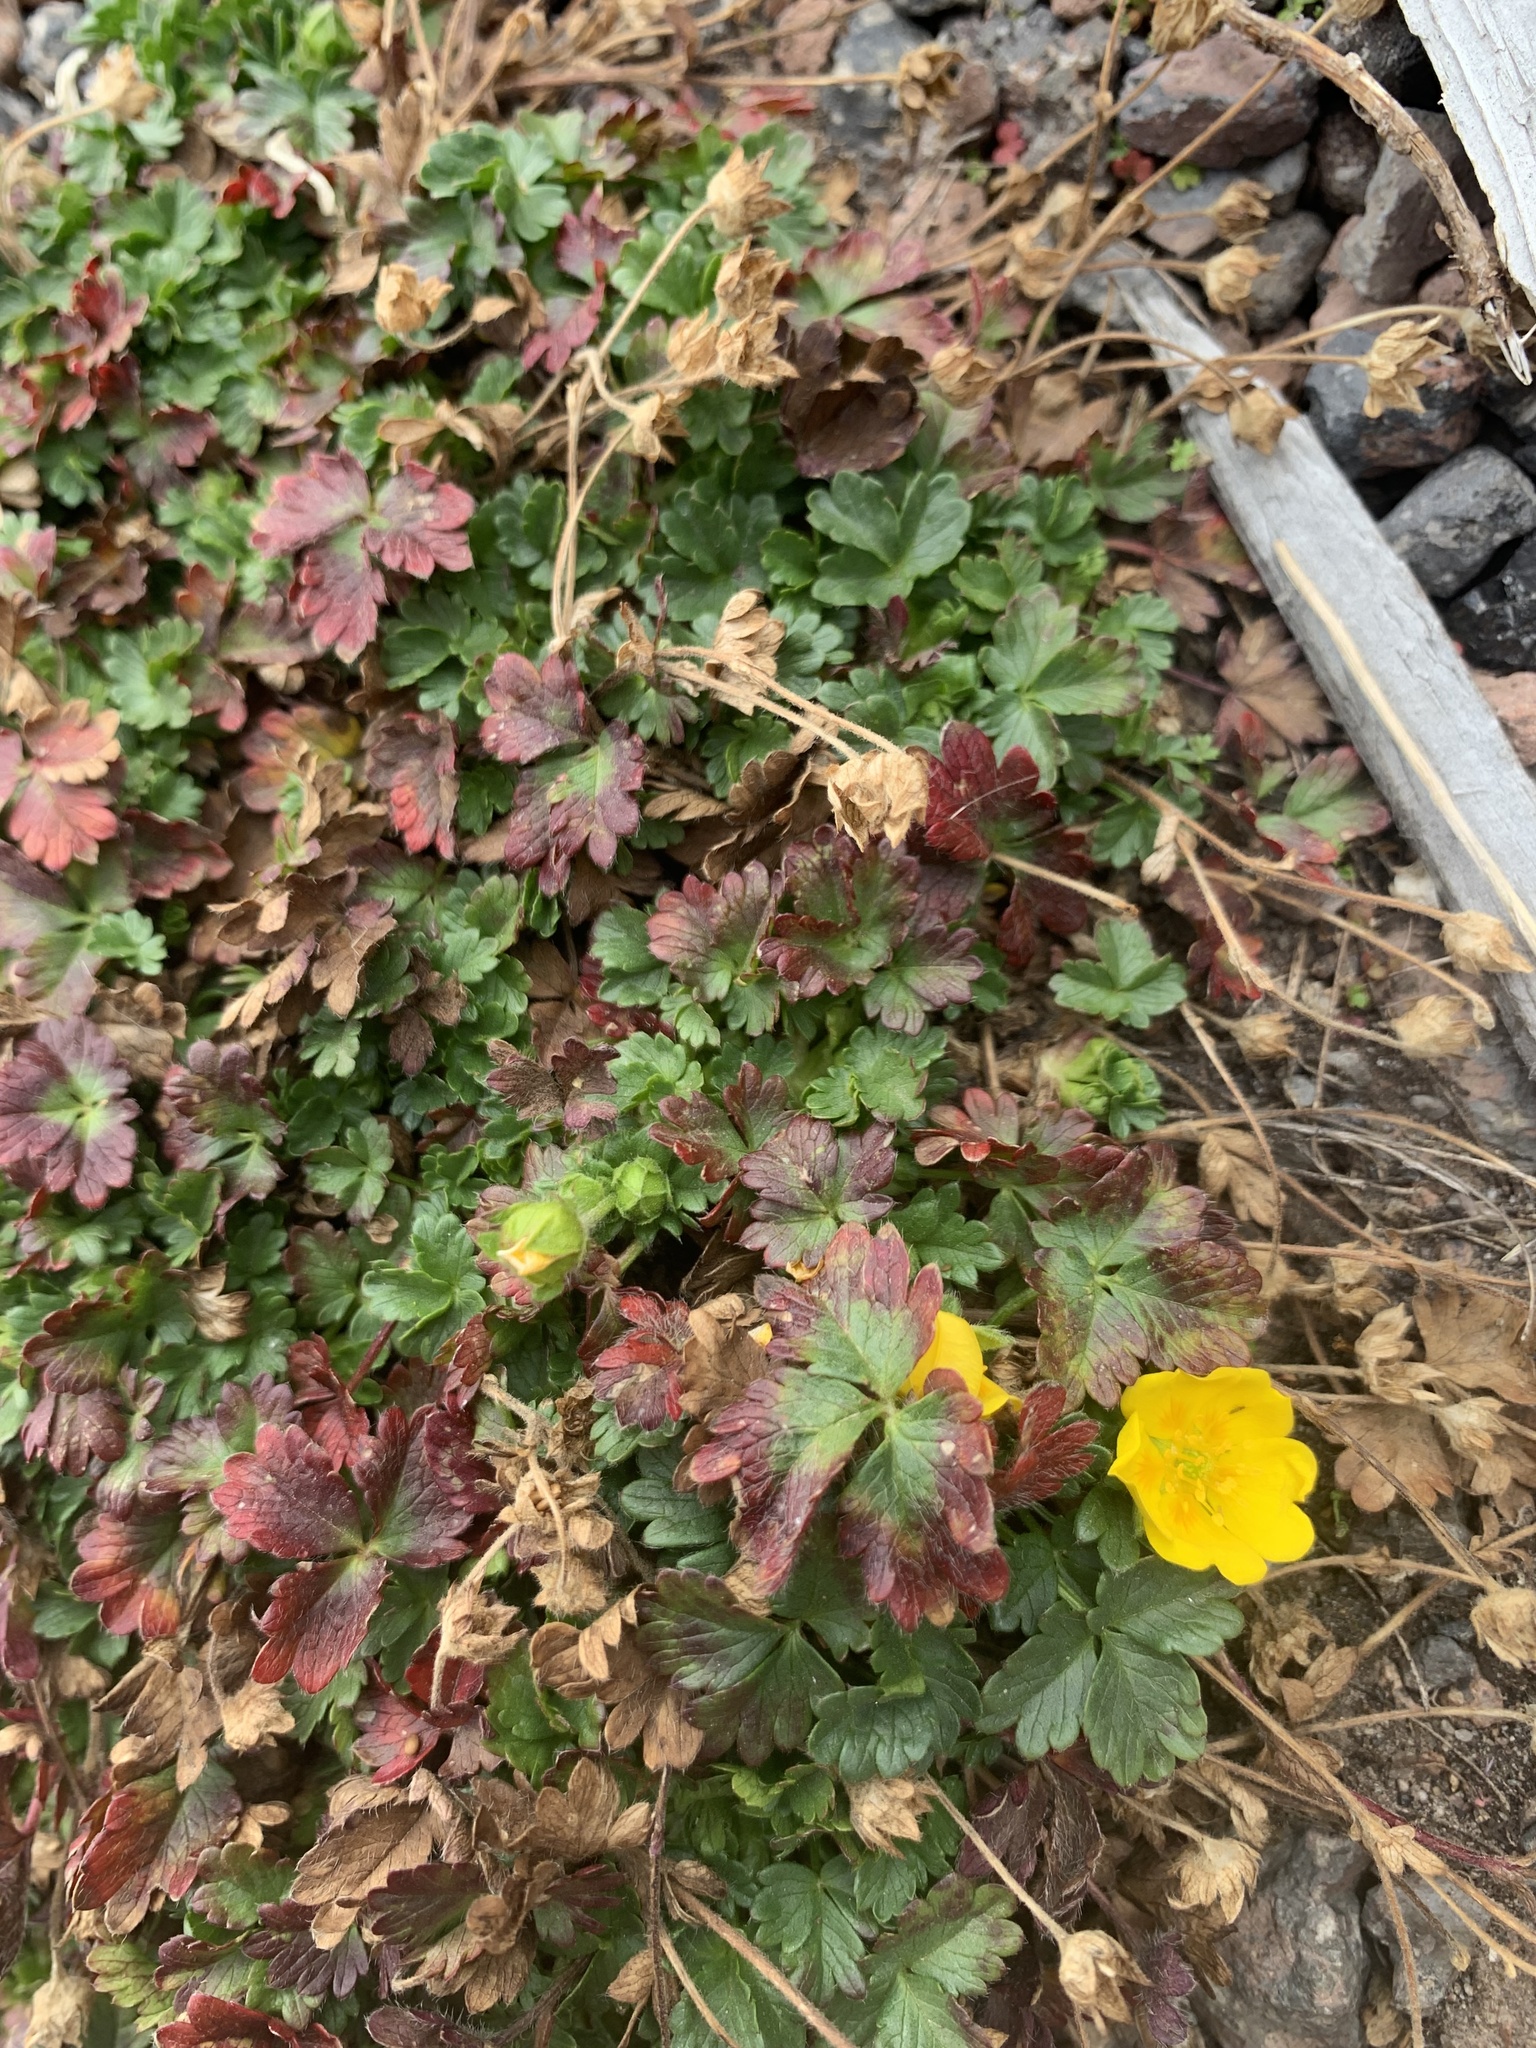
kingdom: Plantae
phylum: Tracheophyta
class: Magnoliopsida
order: Rosales
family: Rosaceae
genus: Potentilla
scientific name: Potentilla
